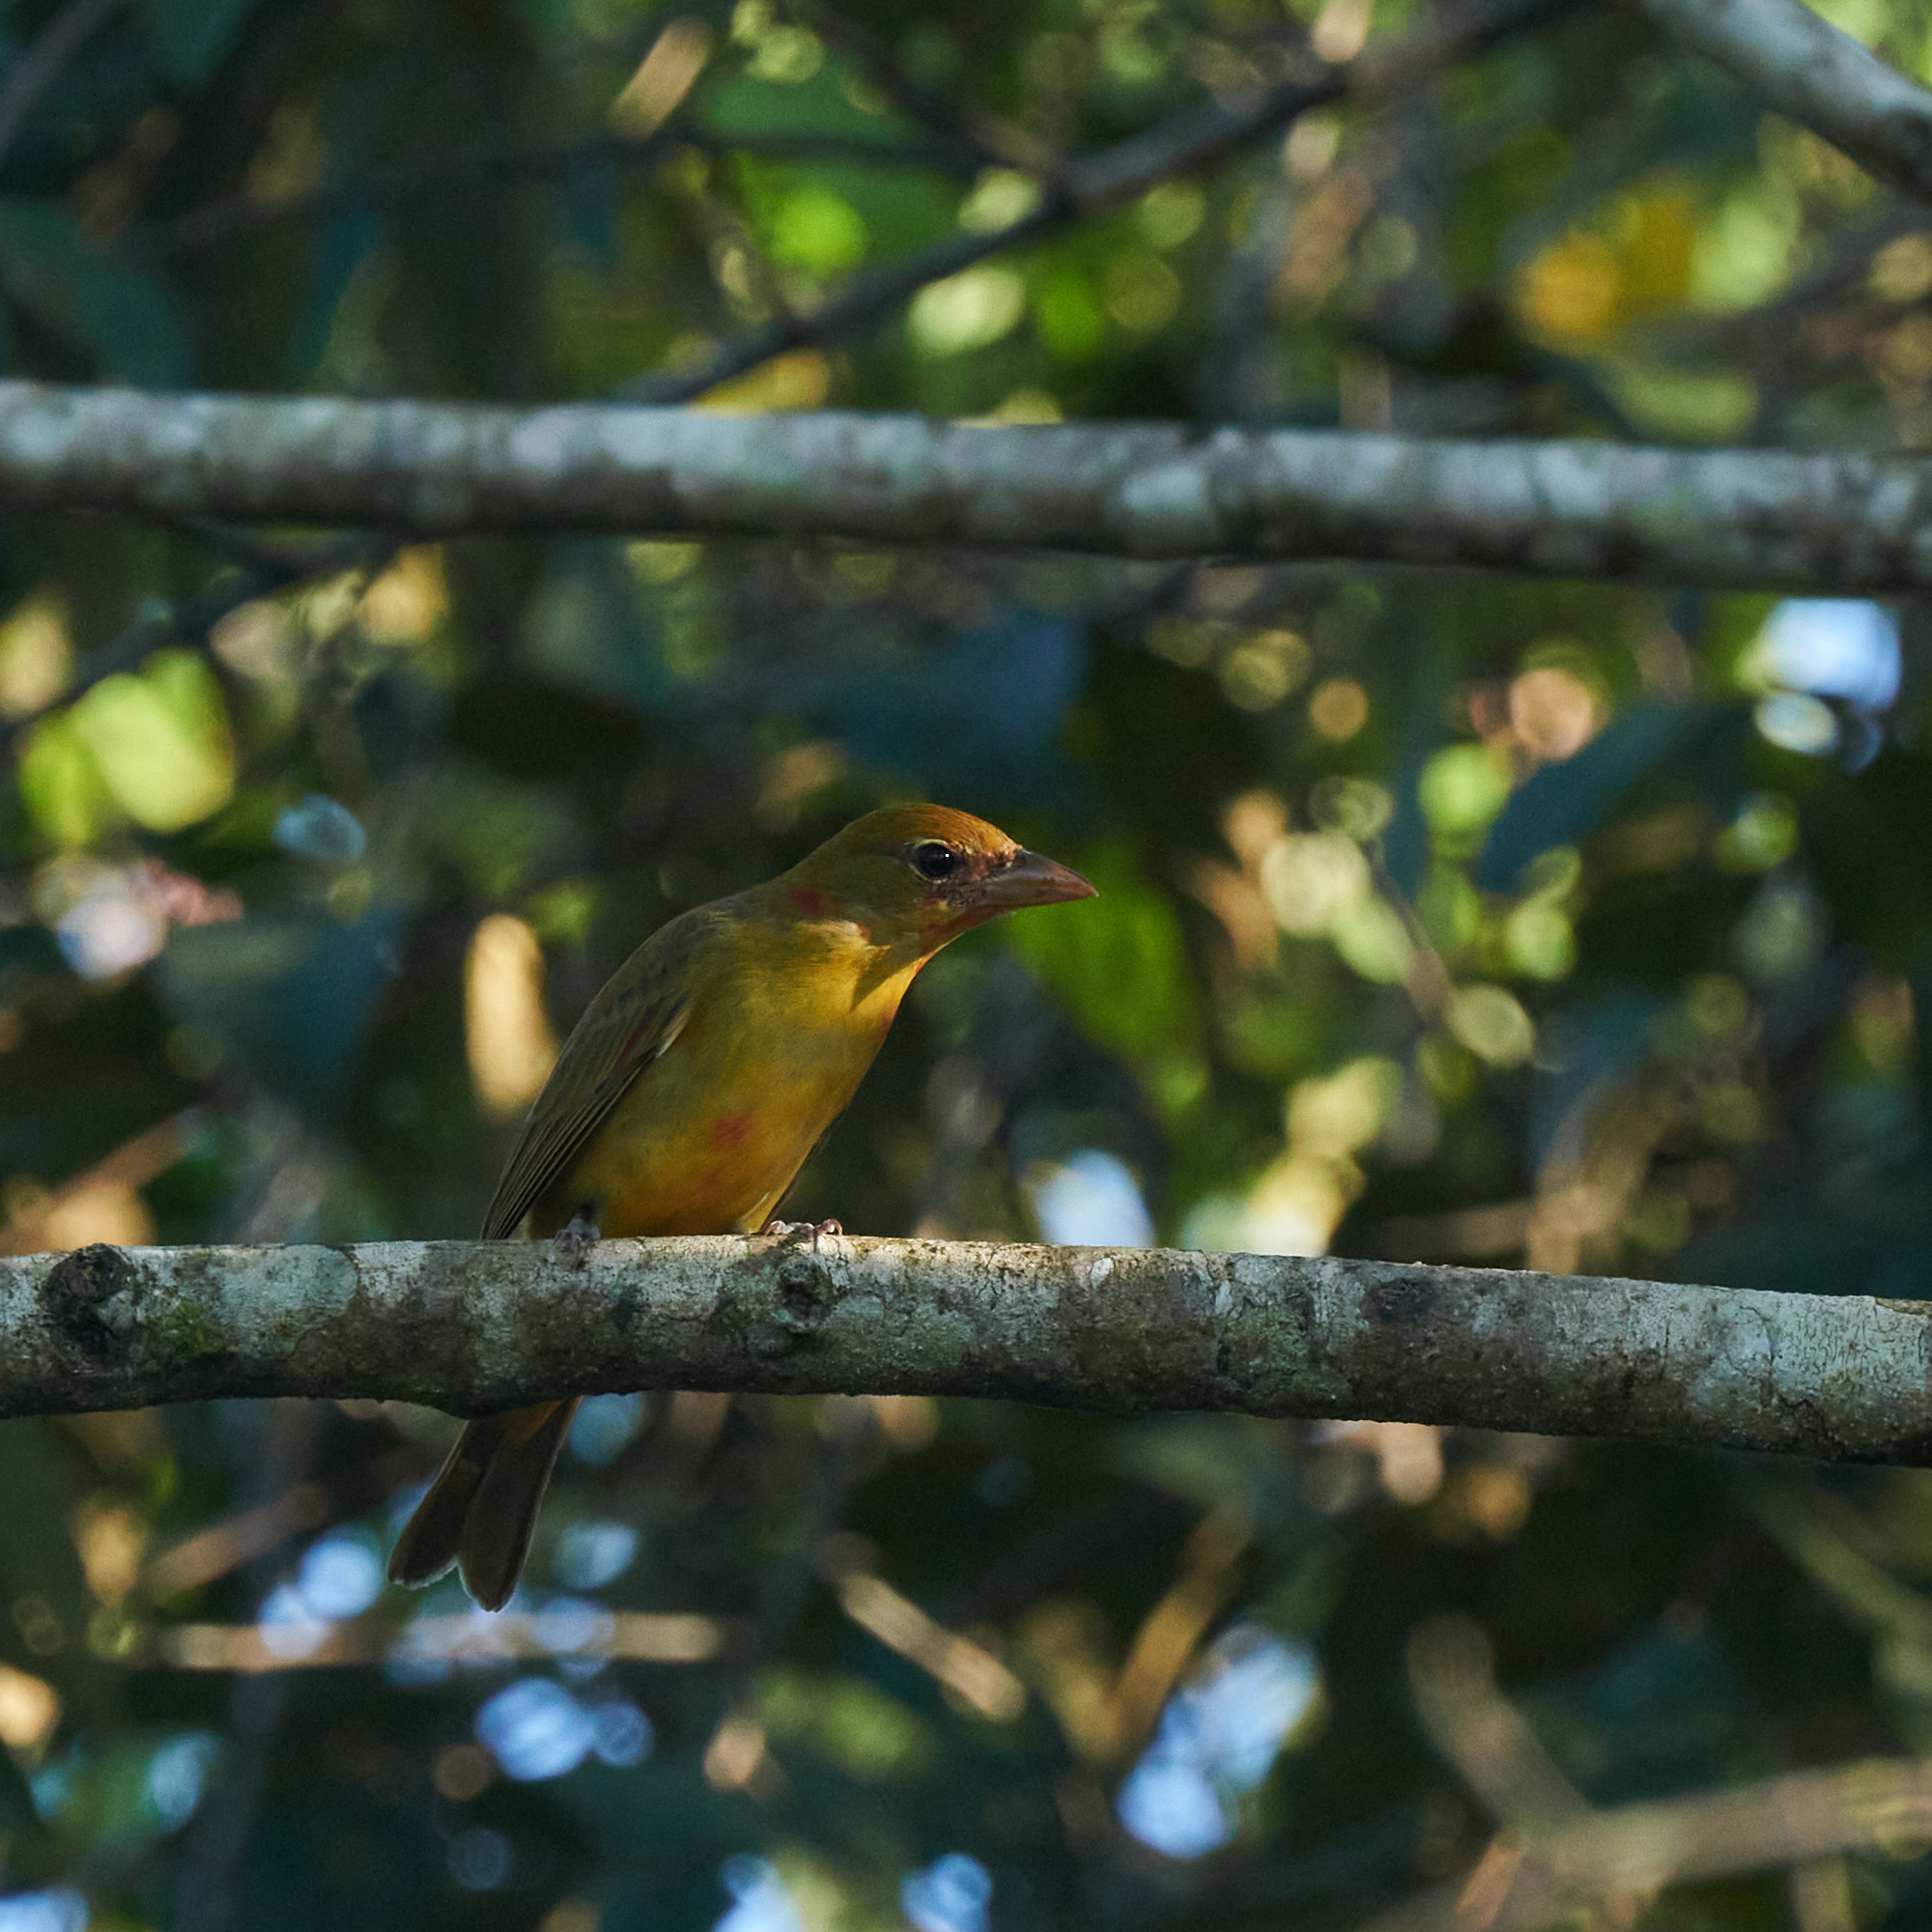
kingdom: Animalia
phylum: Chordata
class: Aves
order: Passeriformes
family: Cardinalidae
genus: Piranga
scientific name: Piranga rubra
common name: Summer tanager
